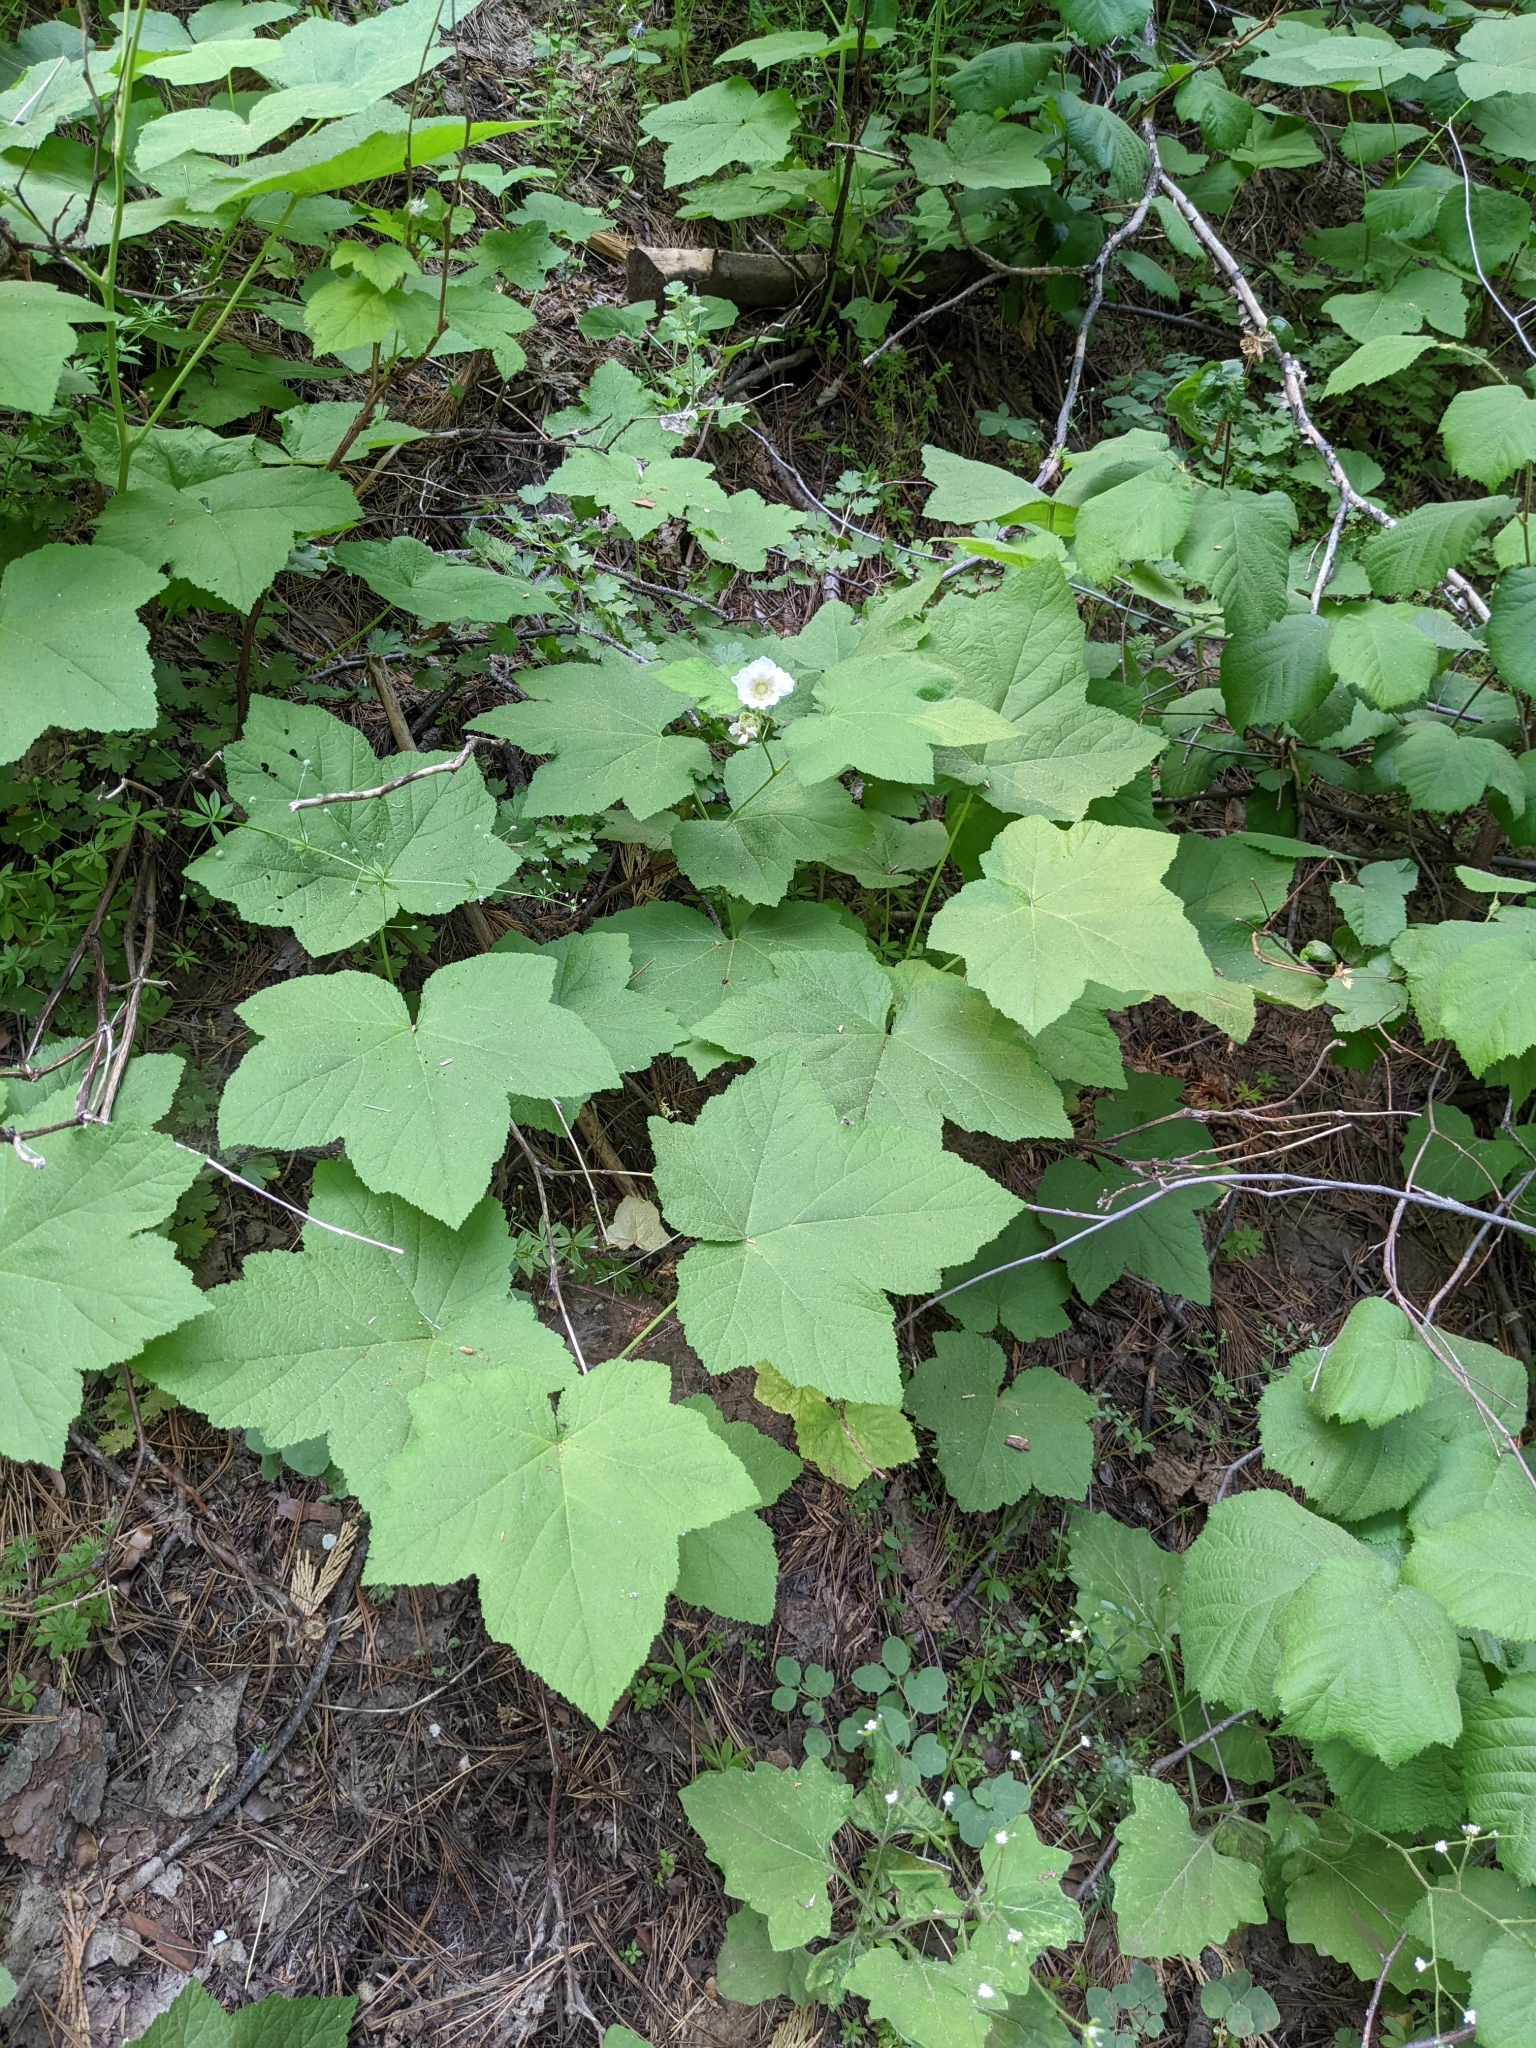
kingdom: Plantae
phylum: Tracheophyta
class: Magnoliopsida
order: Rosales
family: Rosaceae
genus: Rubus
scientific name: Rubus parviflorus
